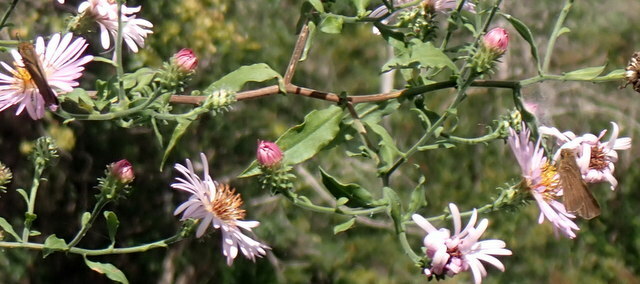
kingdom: Animalia
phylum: Arthropoda
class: Insecta
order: Lepidoptera
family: Hesperiidae
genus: Panoquina
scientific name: Panoquina ocola
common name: Ocola skipper
